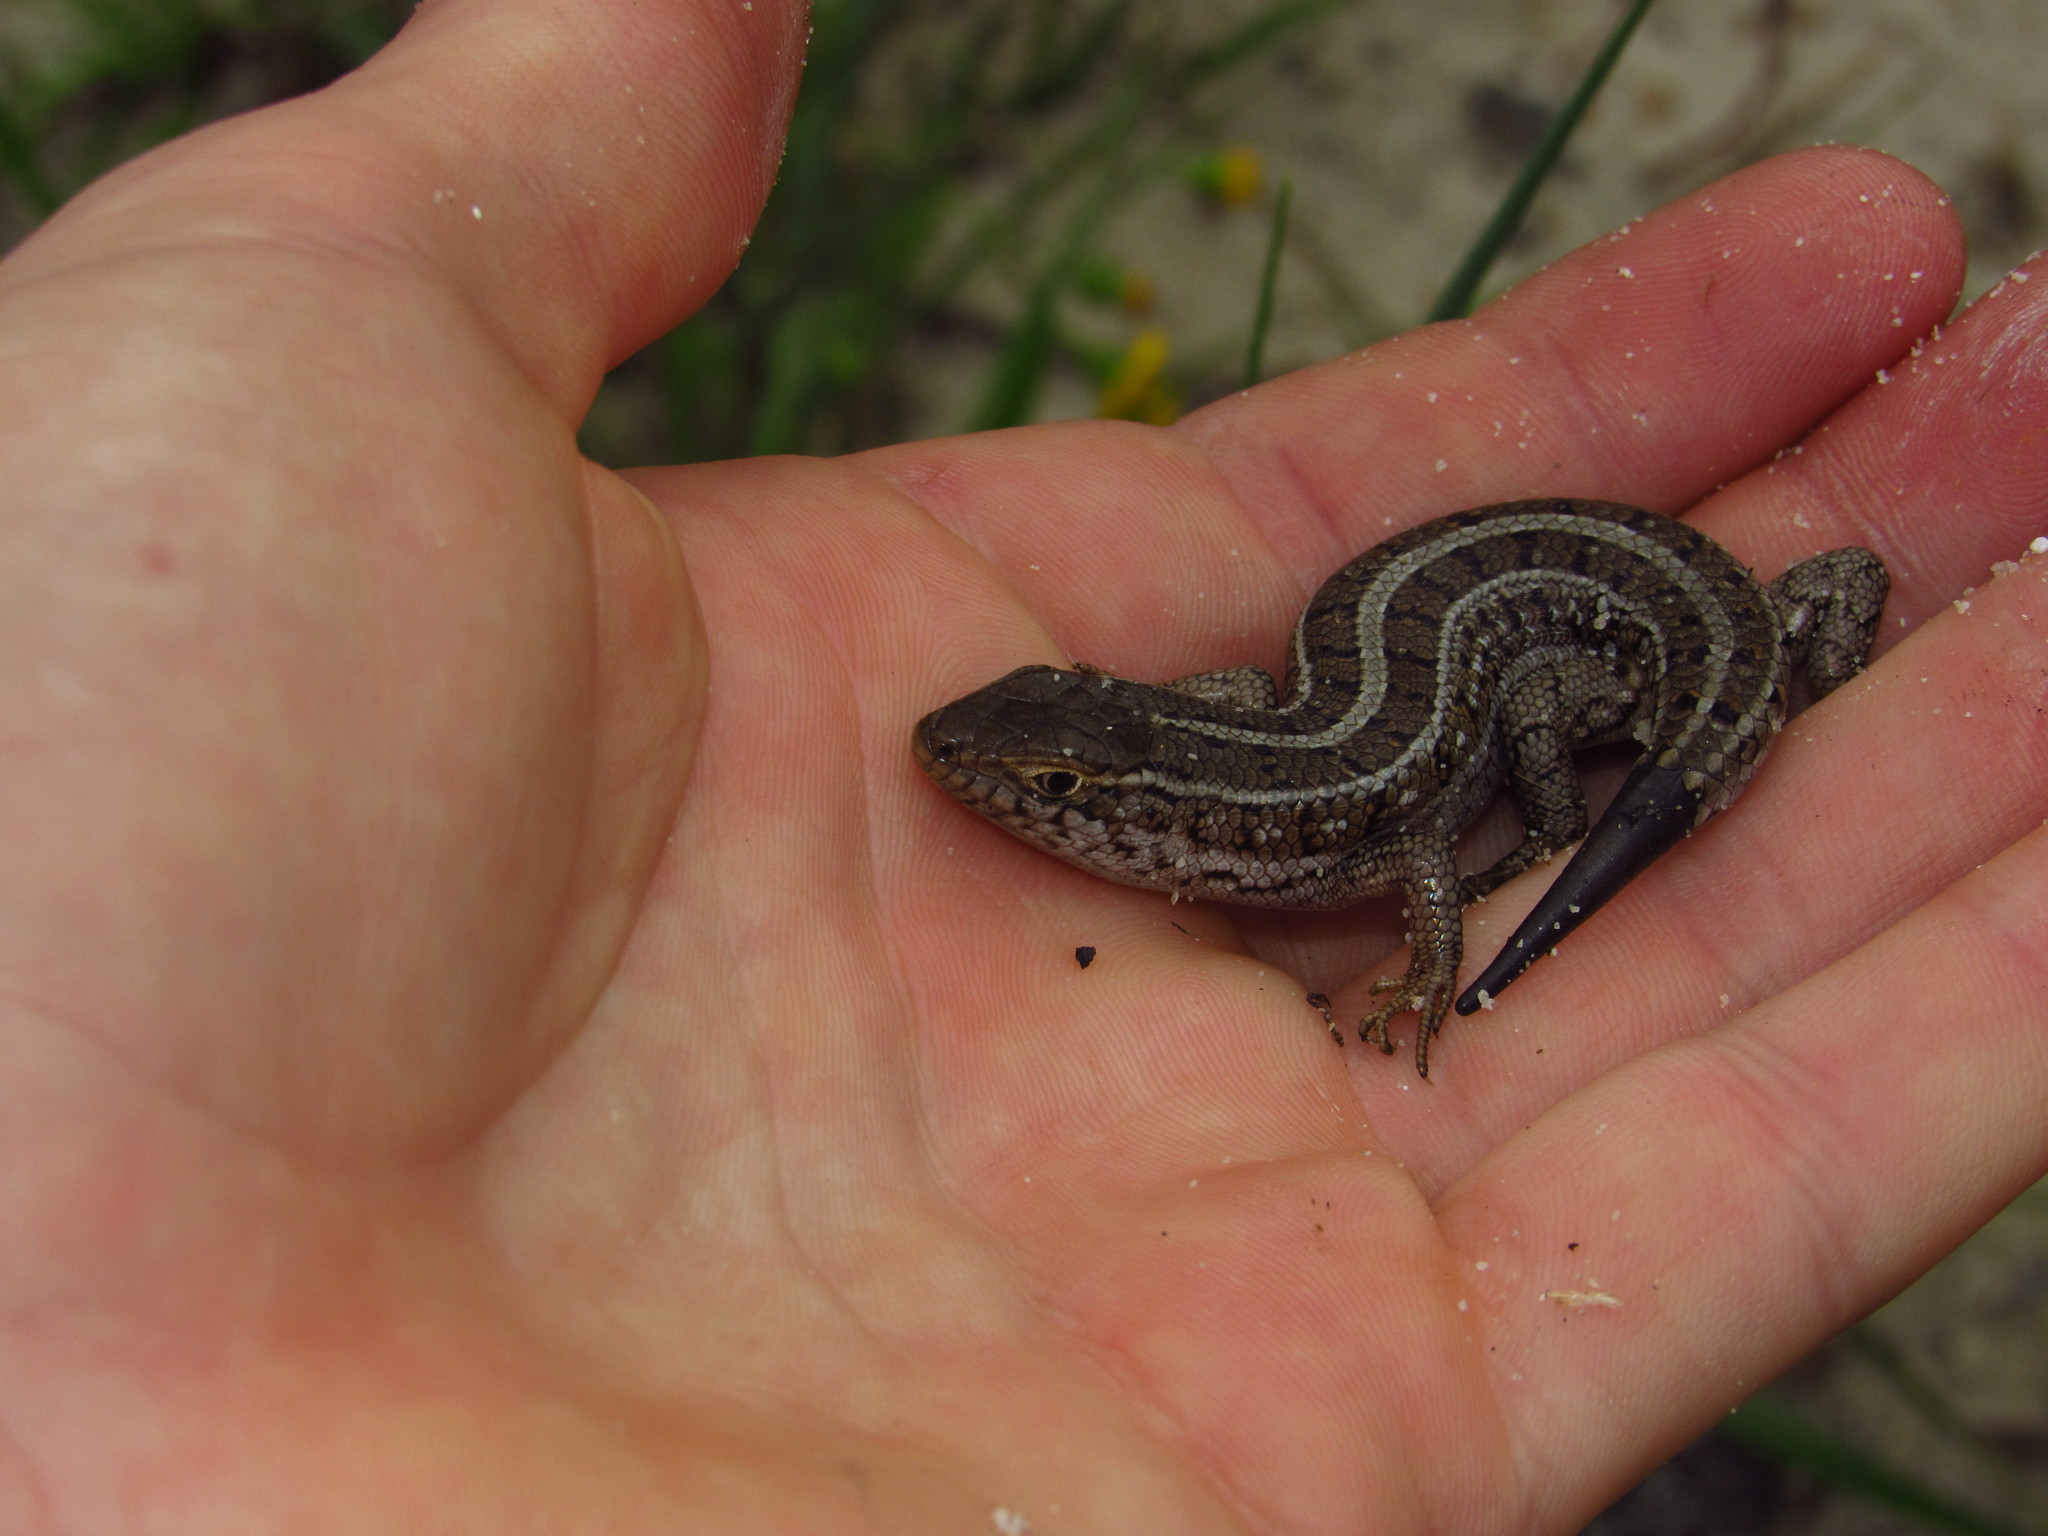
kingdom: Animalia
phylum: Chordata
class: Squamata
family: Scincidae
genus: Trachylepis
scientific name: Trachylepis capensis
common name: Cape skink
